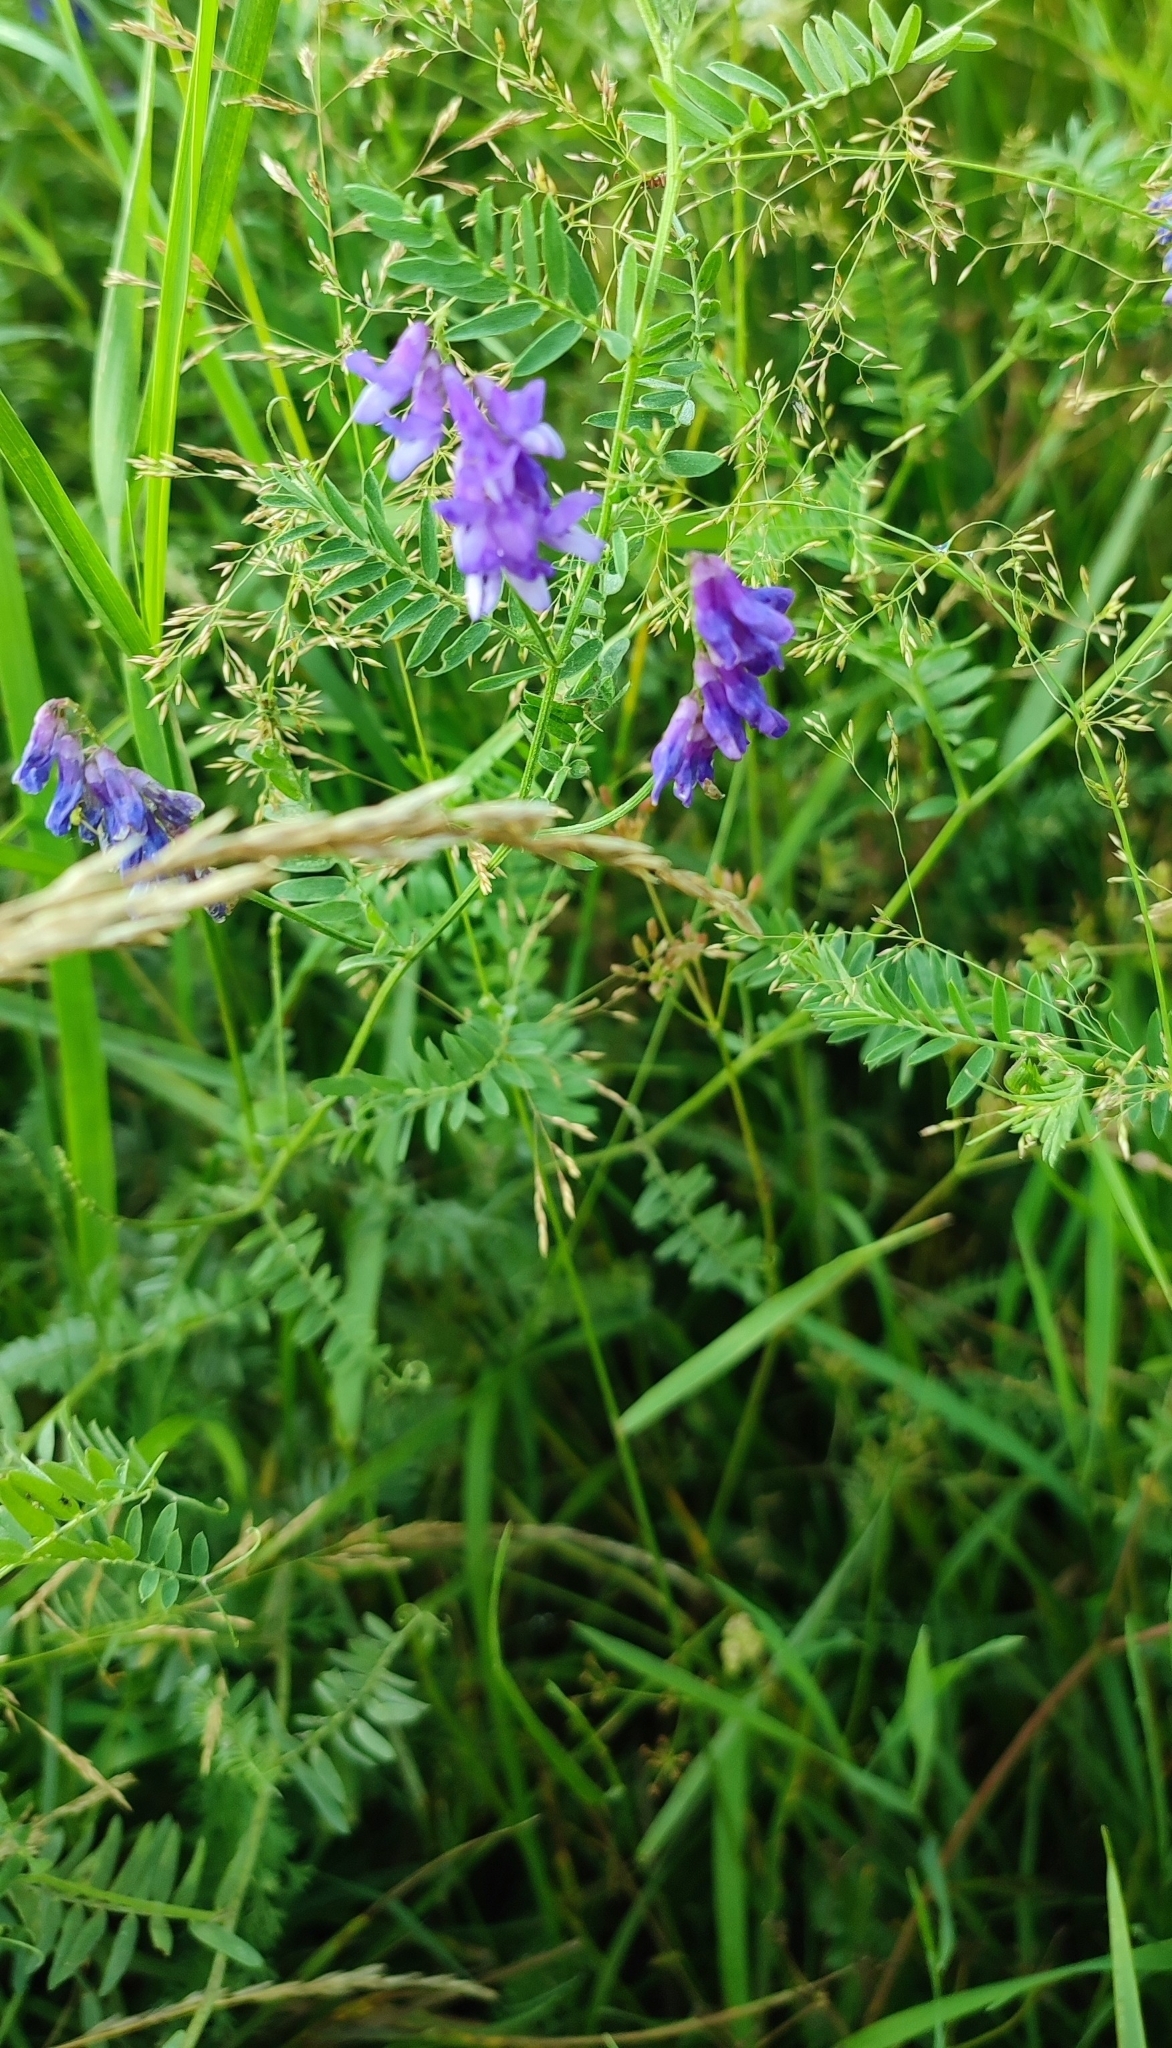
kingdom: Plantae
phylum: Tracheophyta
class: Magnoliopsida
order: Fabales
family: Fabaceae
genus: Vicia
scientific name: Vicia cracca
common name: Bird vetch
